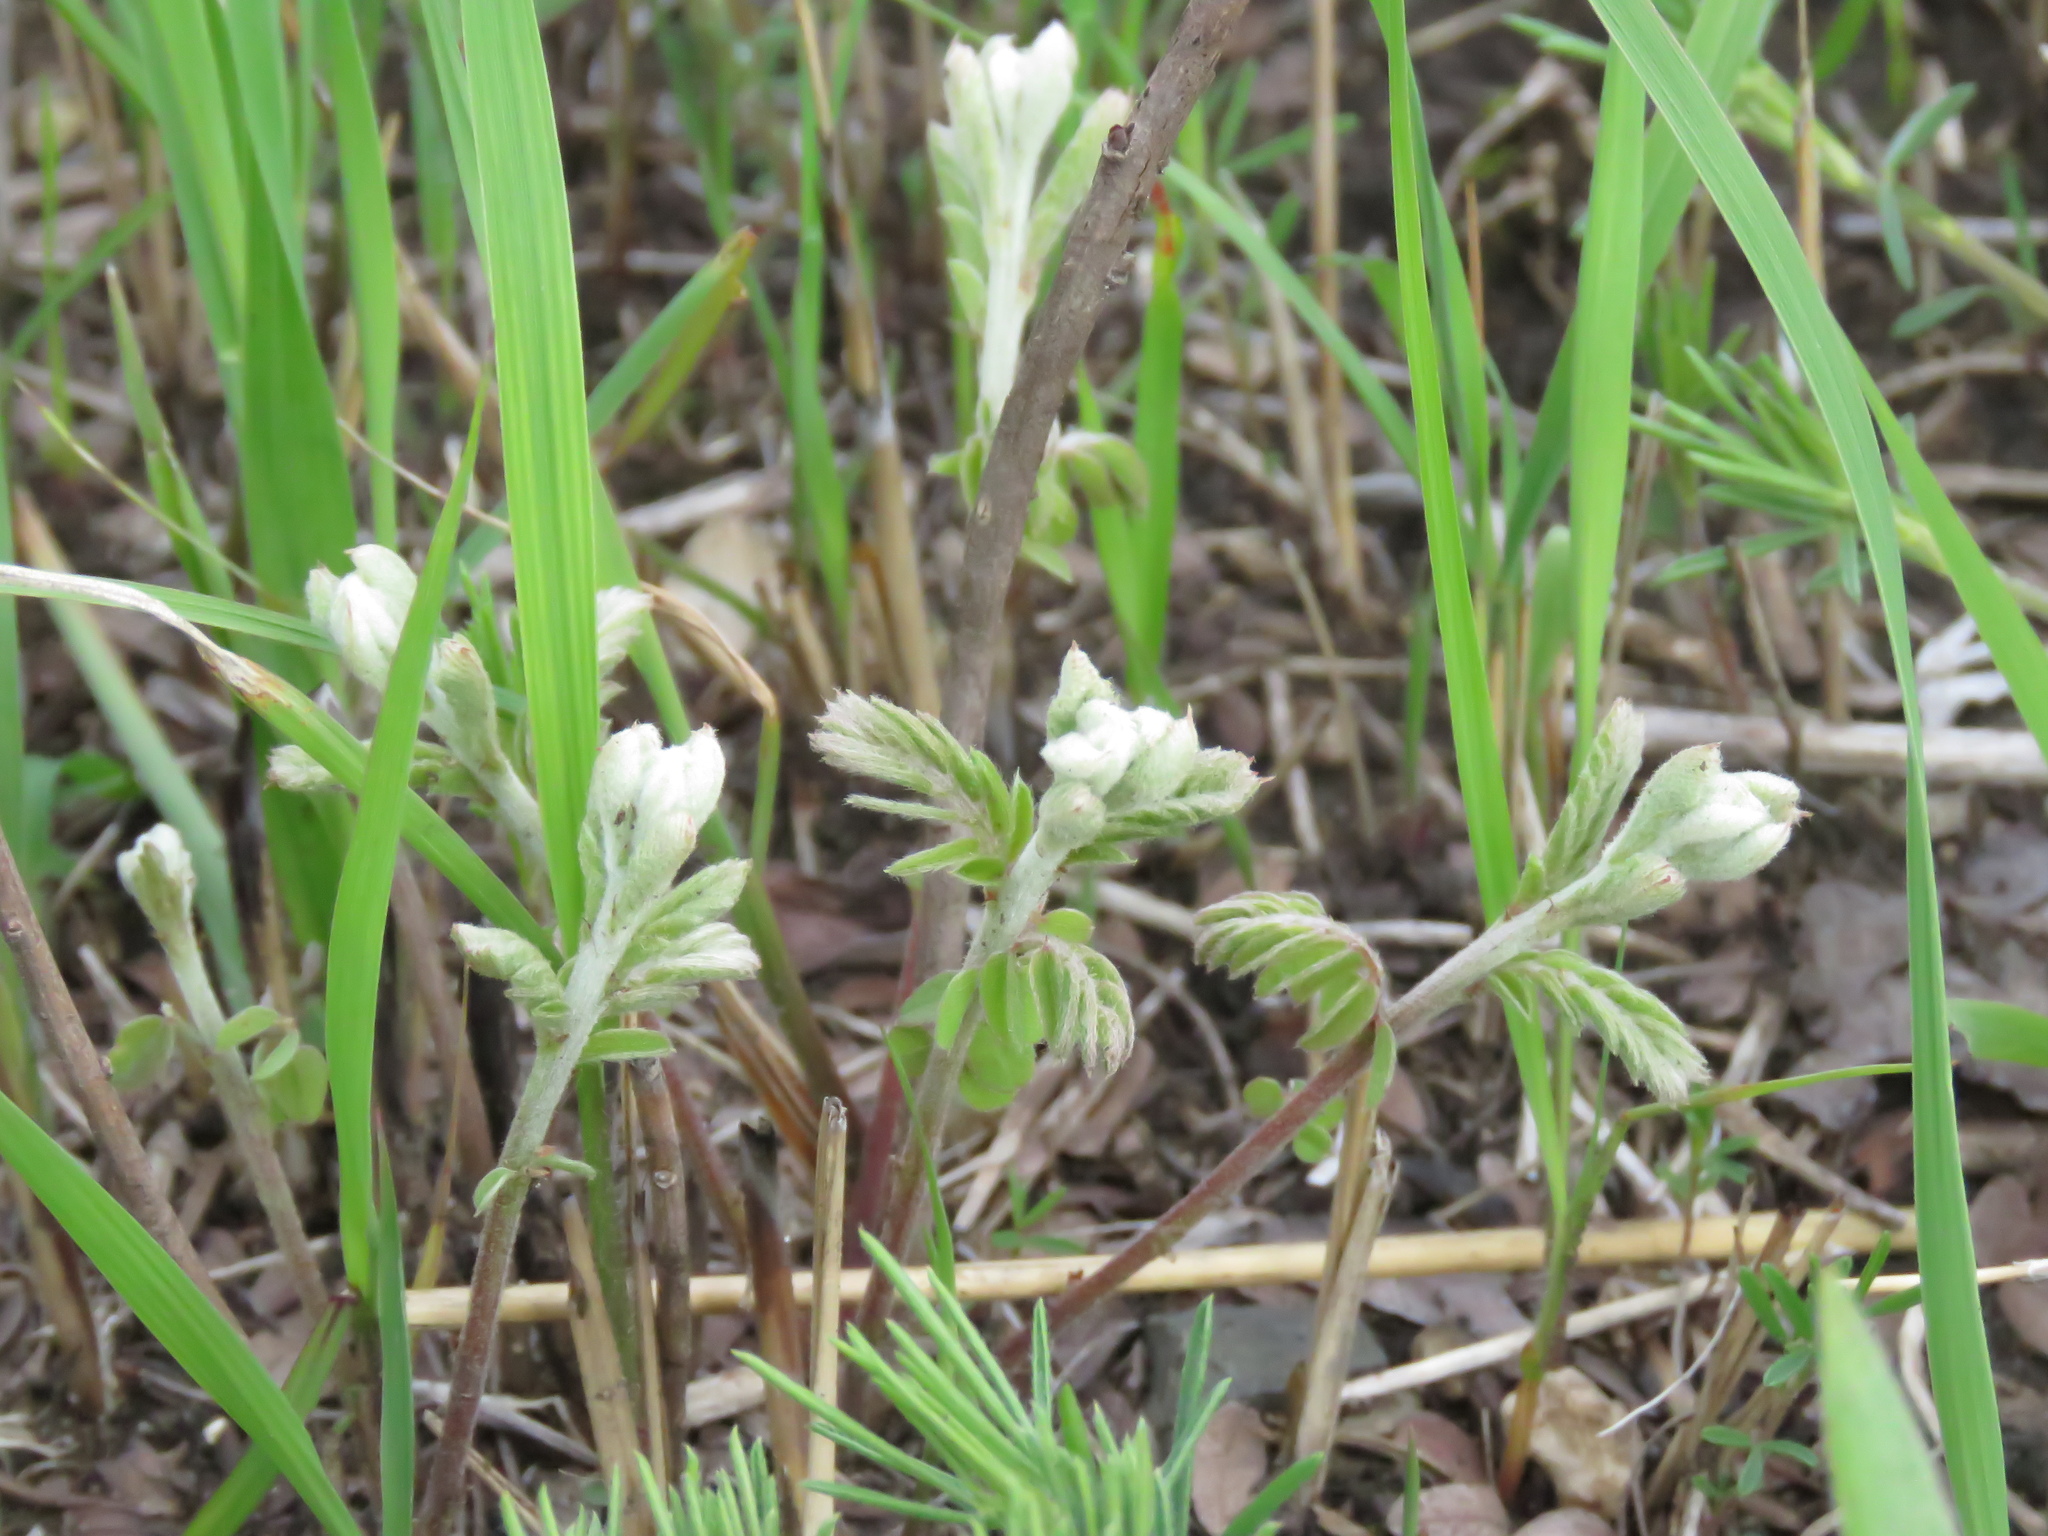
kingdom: Plantae
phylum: Tracheophyta
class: Magnoliopsida
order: Fabales
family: Fabaceae
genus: Amorpha
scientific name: Amorpha canescens
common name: Leadplant
